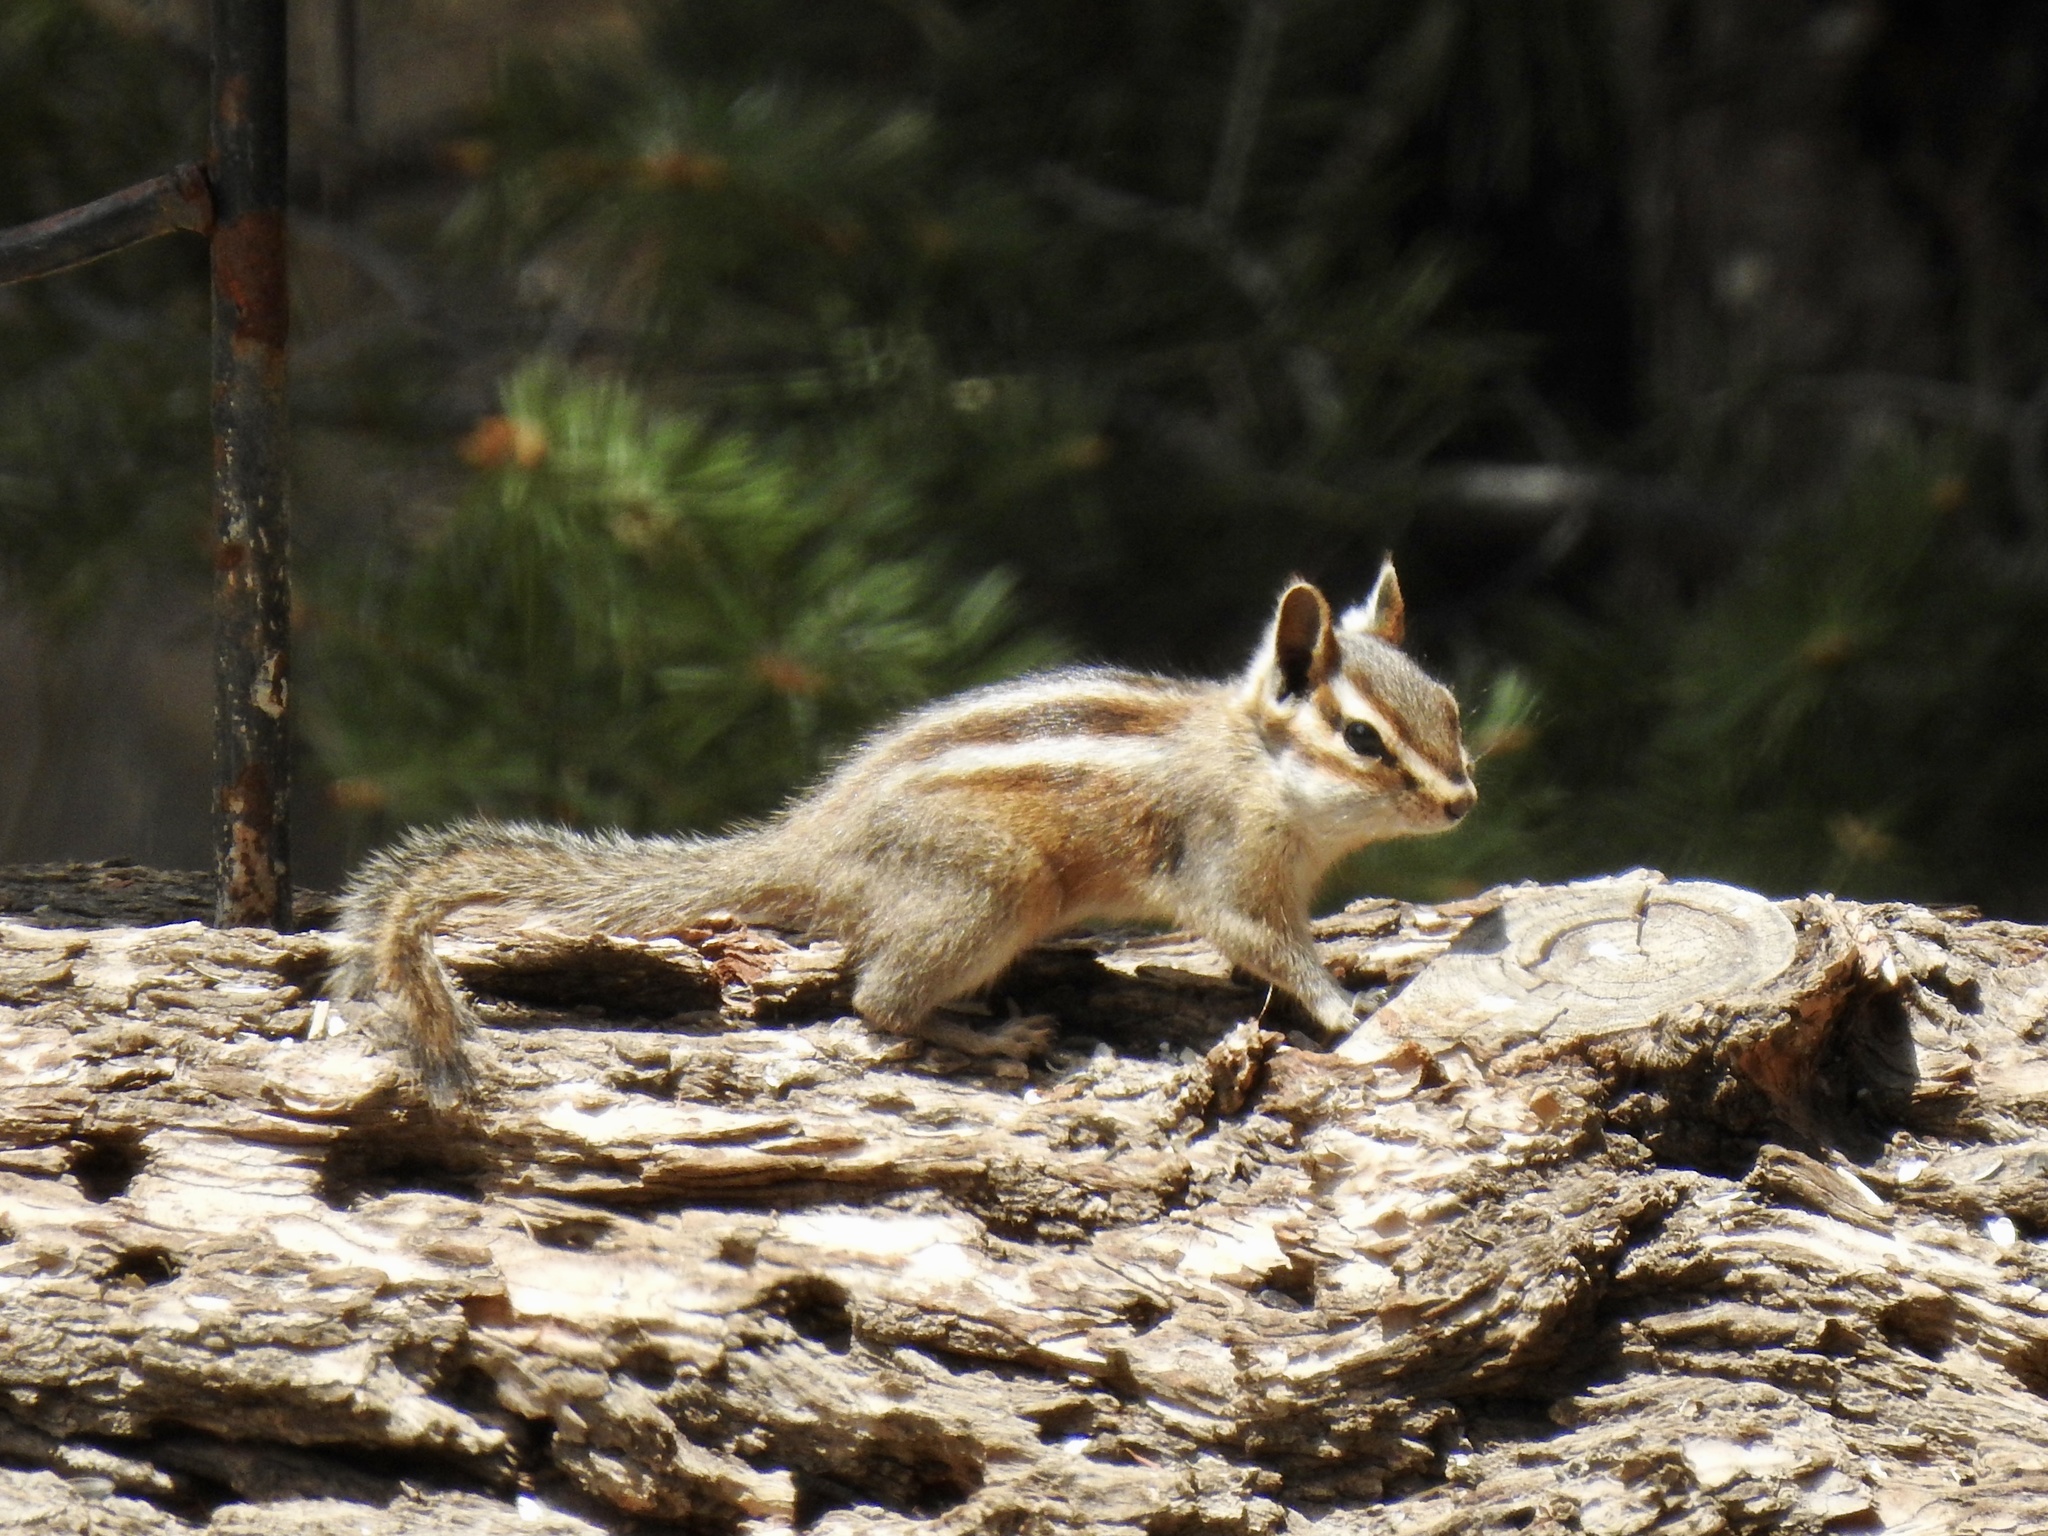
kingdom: Animalia
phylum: Chordata
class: Mammalia
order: Rodentia
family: Sciuridae
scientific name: Sciuridae
